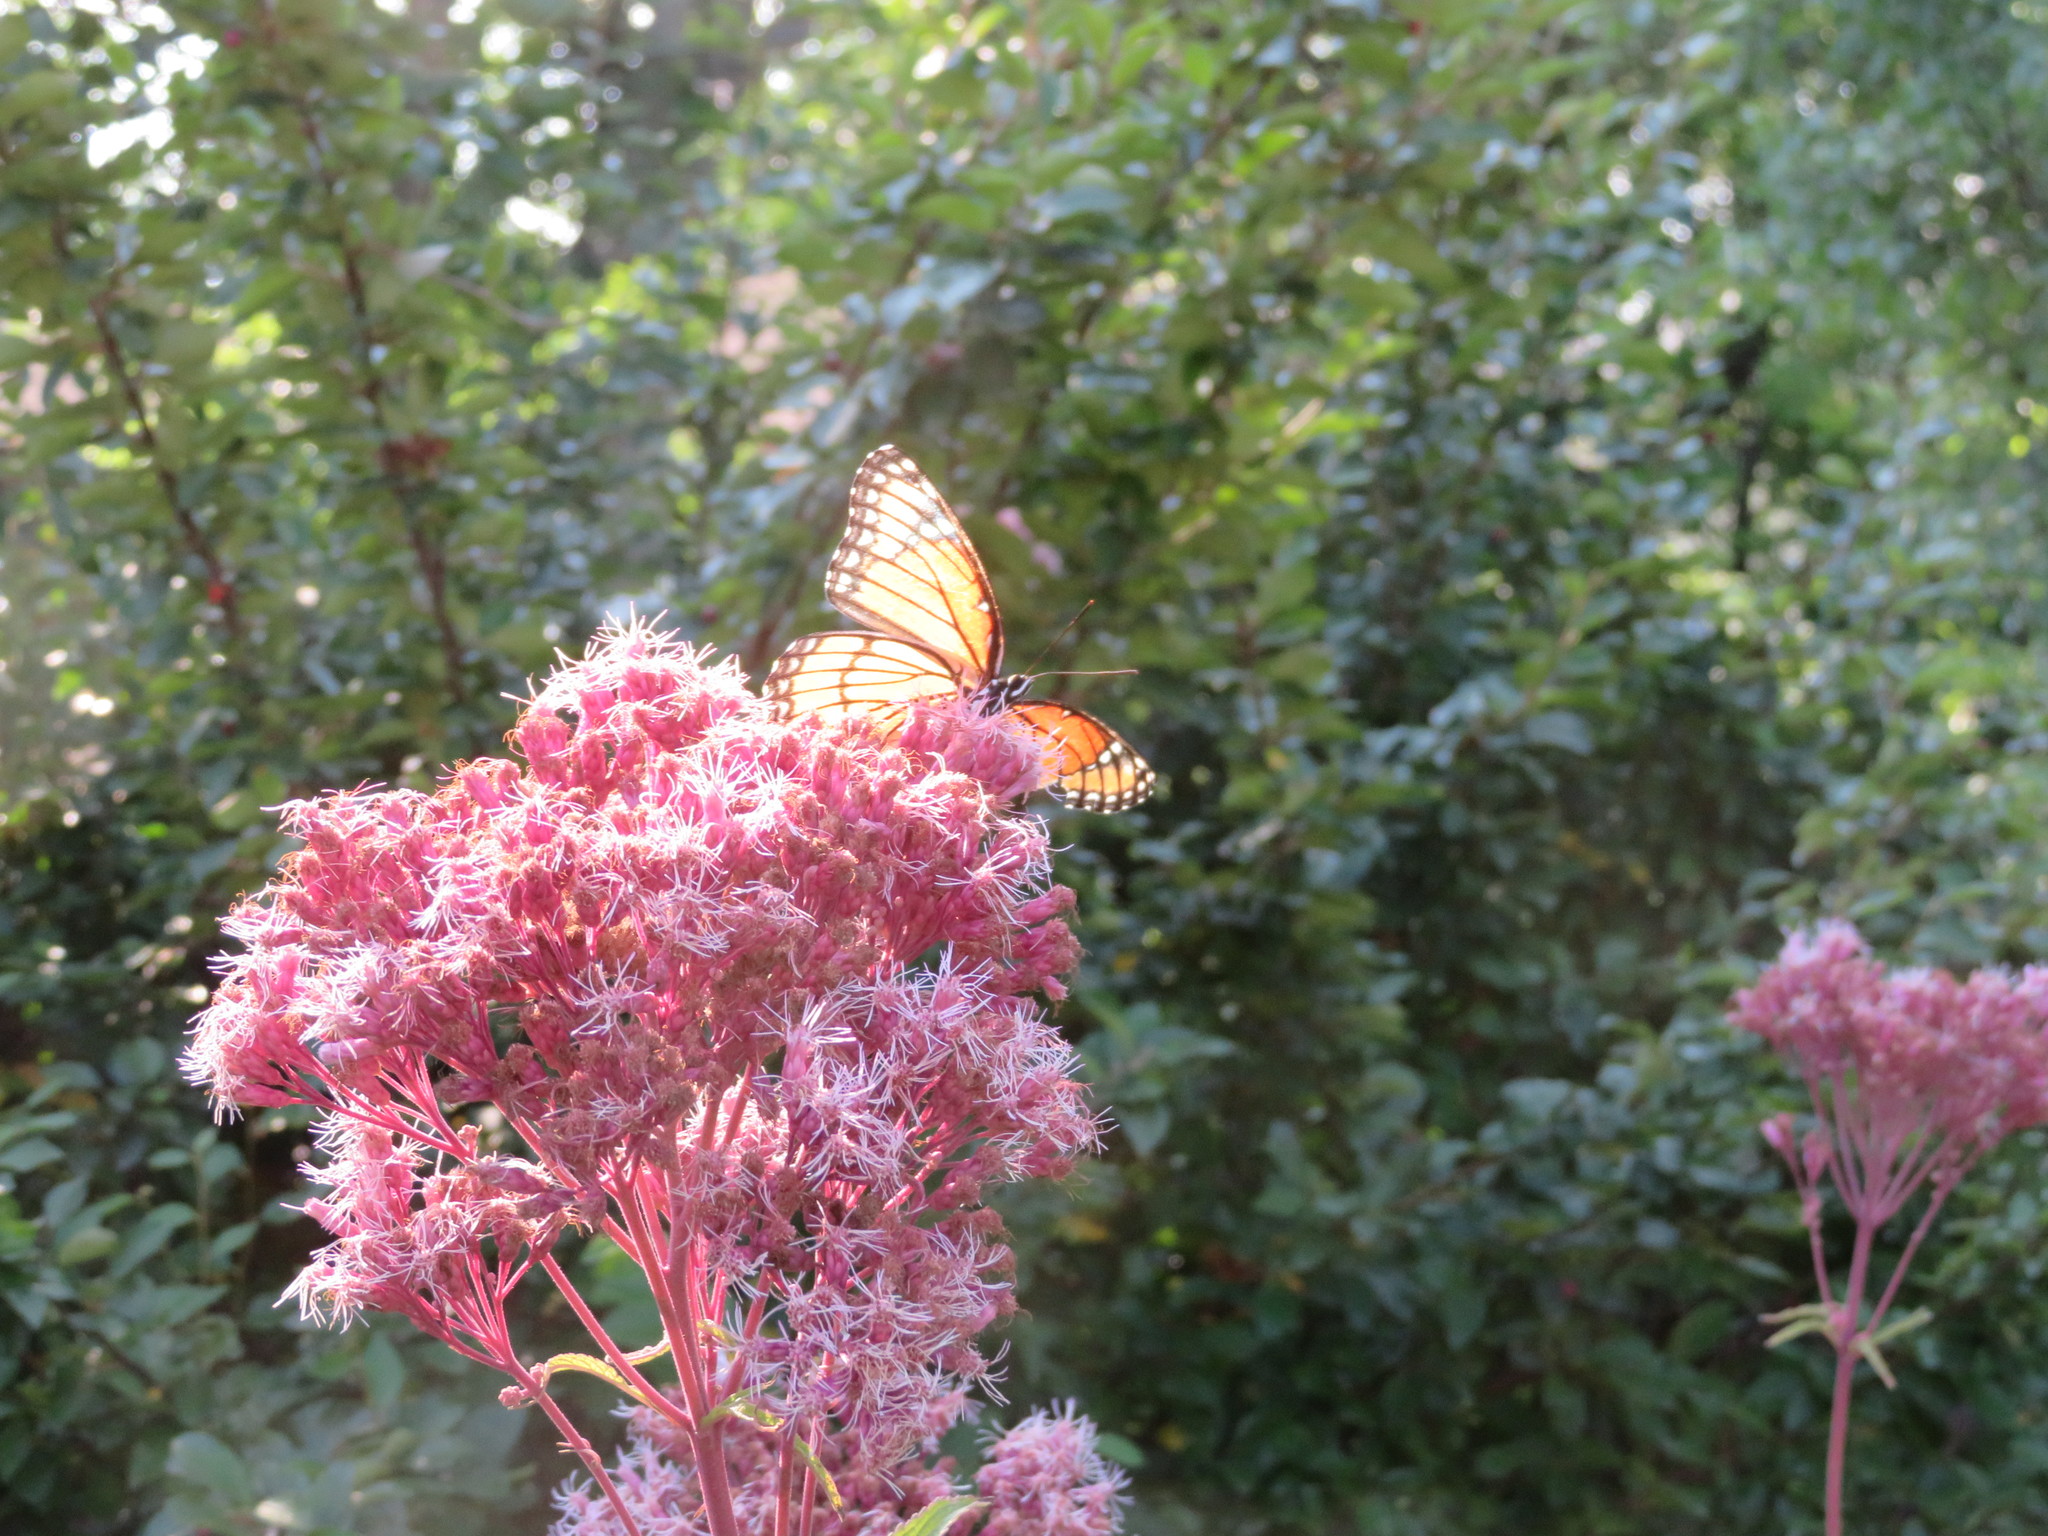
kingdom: Animalia
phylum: Arthropoda
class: Insecta
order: Lepidoptera
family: Nymphalidae
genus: Limenitis
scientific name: Limenitis archippus
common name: Viceroy
